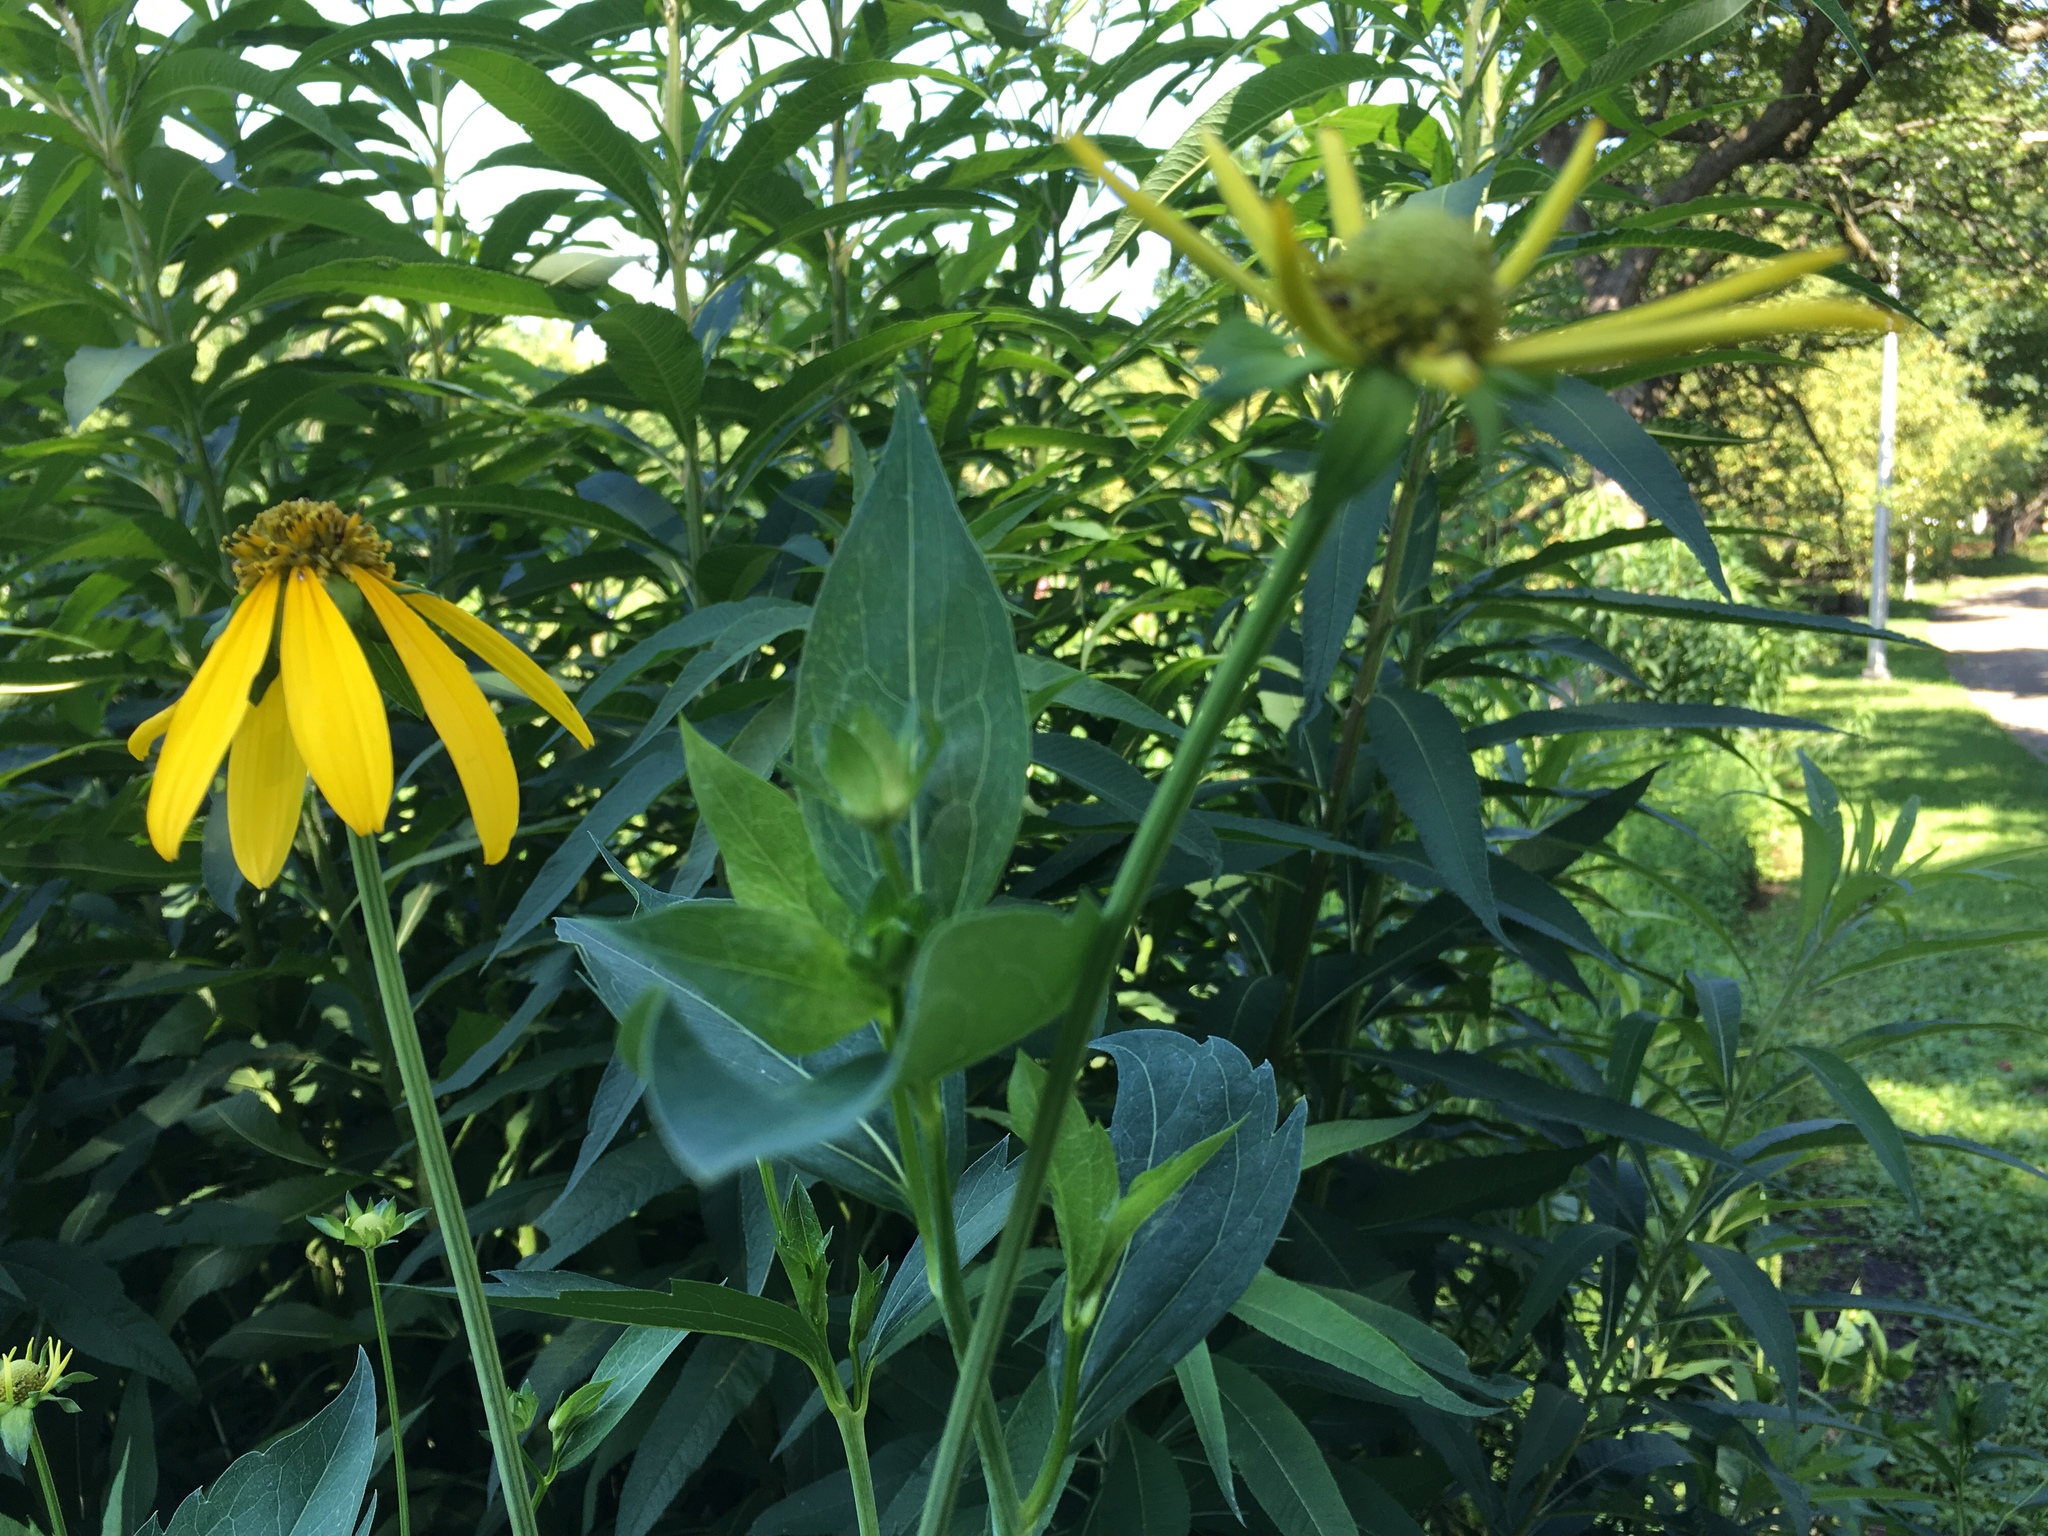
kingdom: Plantae
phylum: Tracheophyta
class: Magnoliopsida
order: Asterales
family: Asteraceae
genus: Rudbeckia
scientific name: Rudbeckia laciniata
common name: Coneflower
